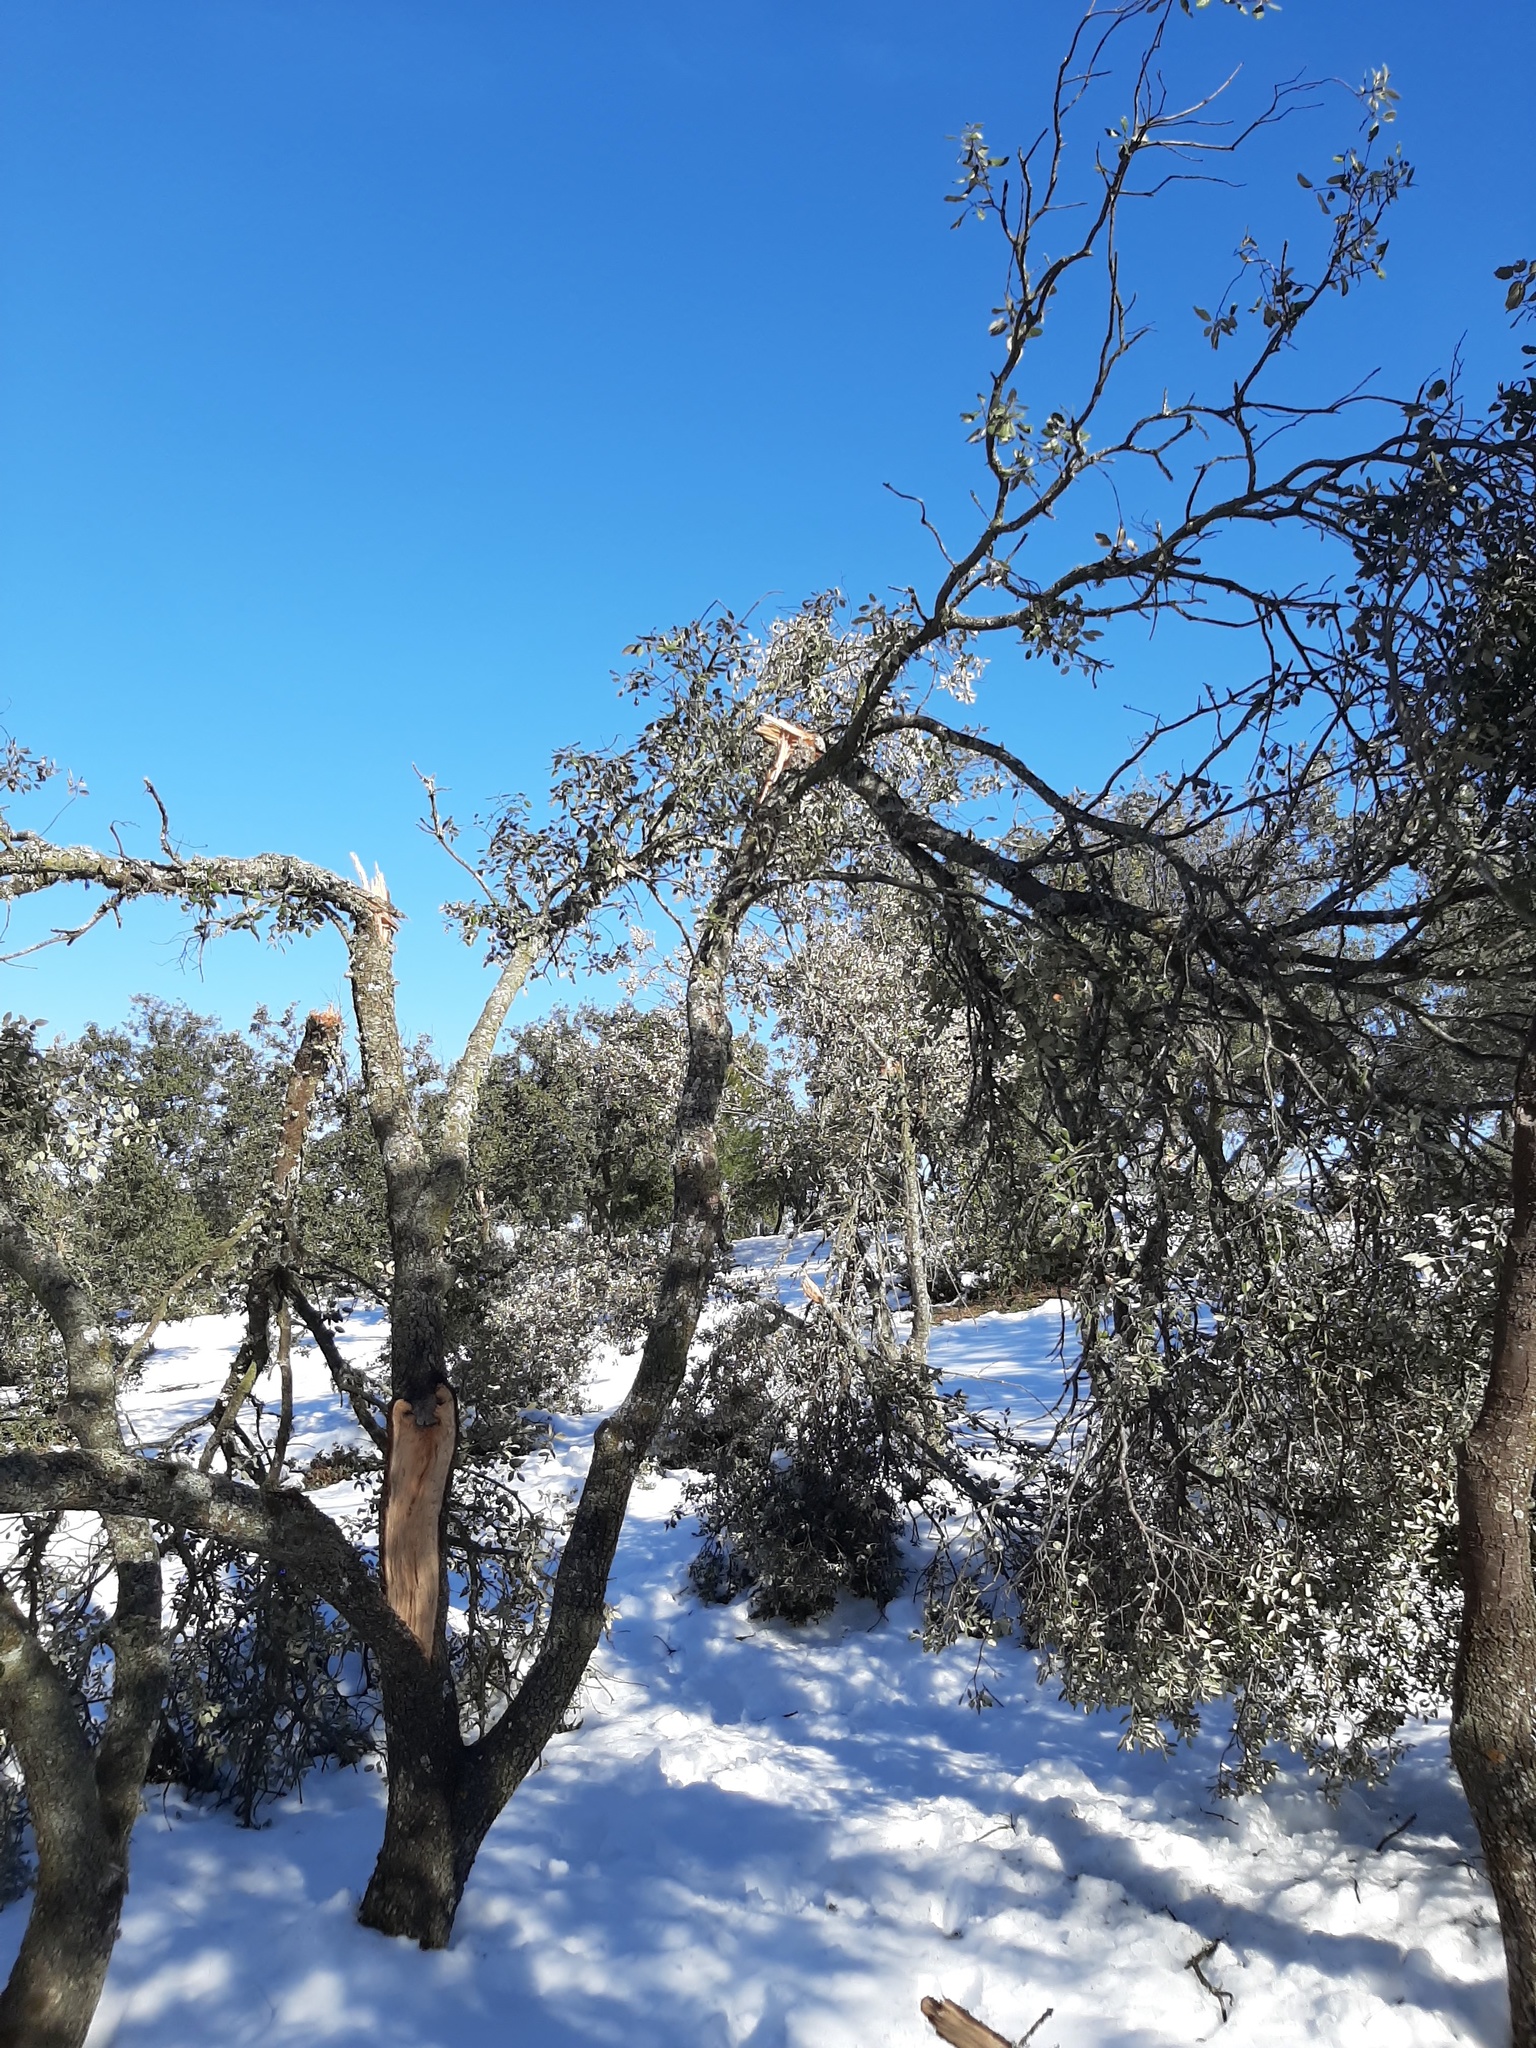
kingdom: Plantae
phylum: Tracheophyta
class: Magnoliopsida
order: Fagales
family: Fagaceae
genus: Quercus
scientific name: Quercus rotundifolia
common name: Holm oak
